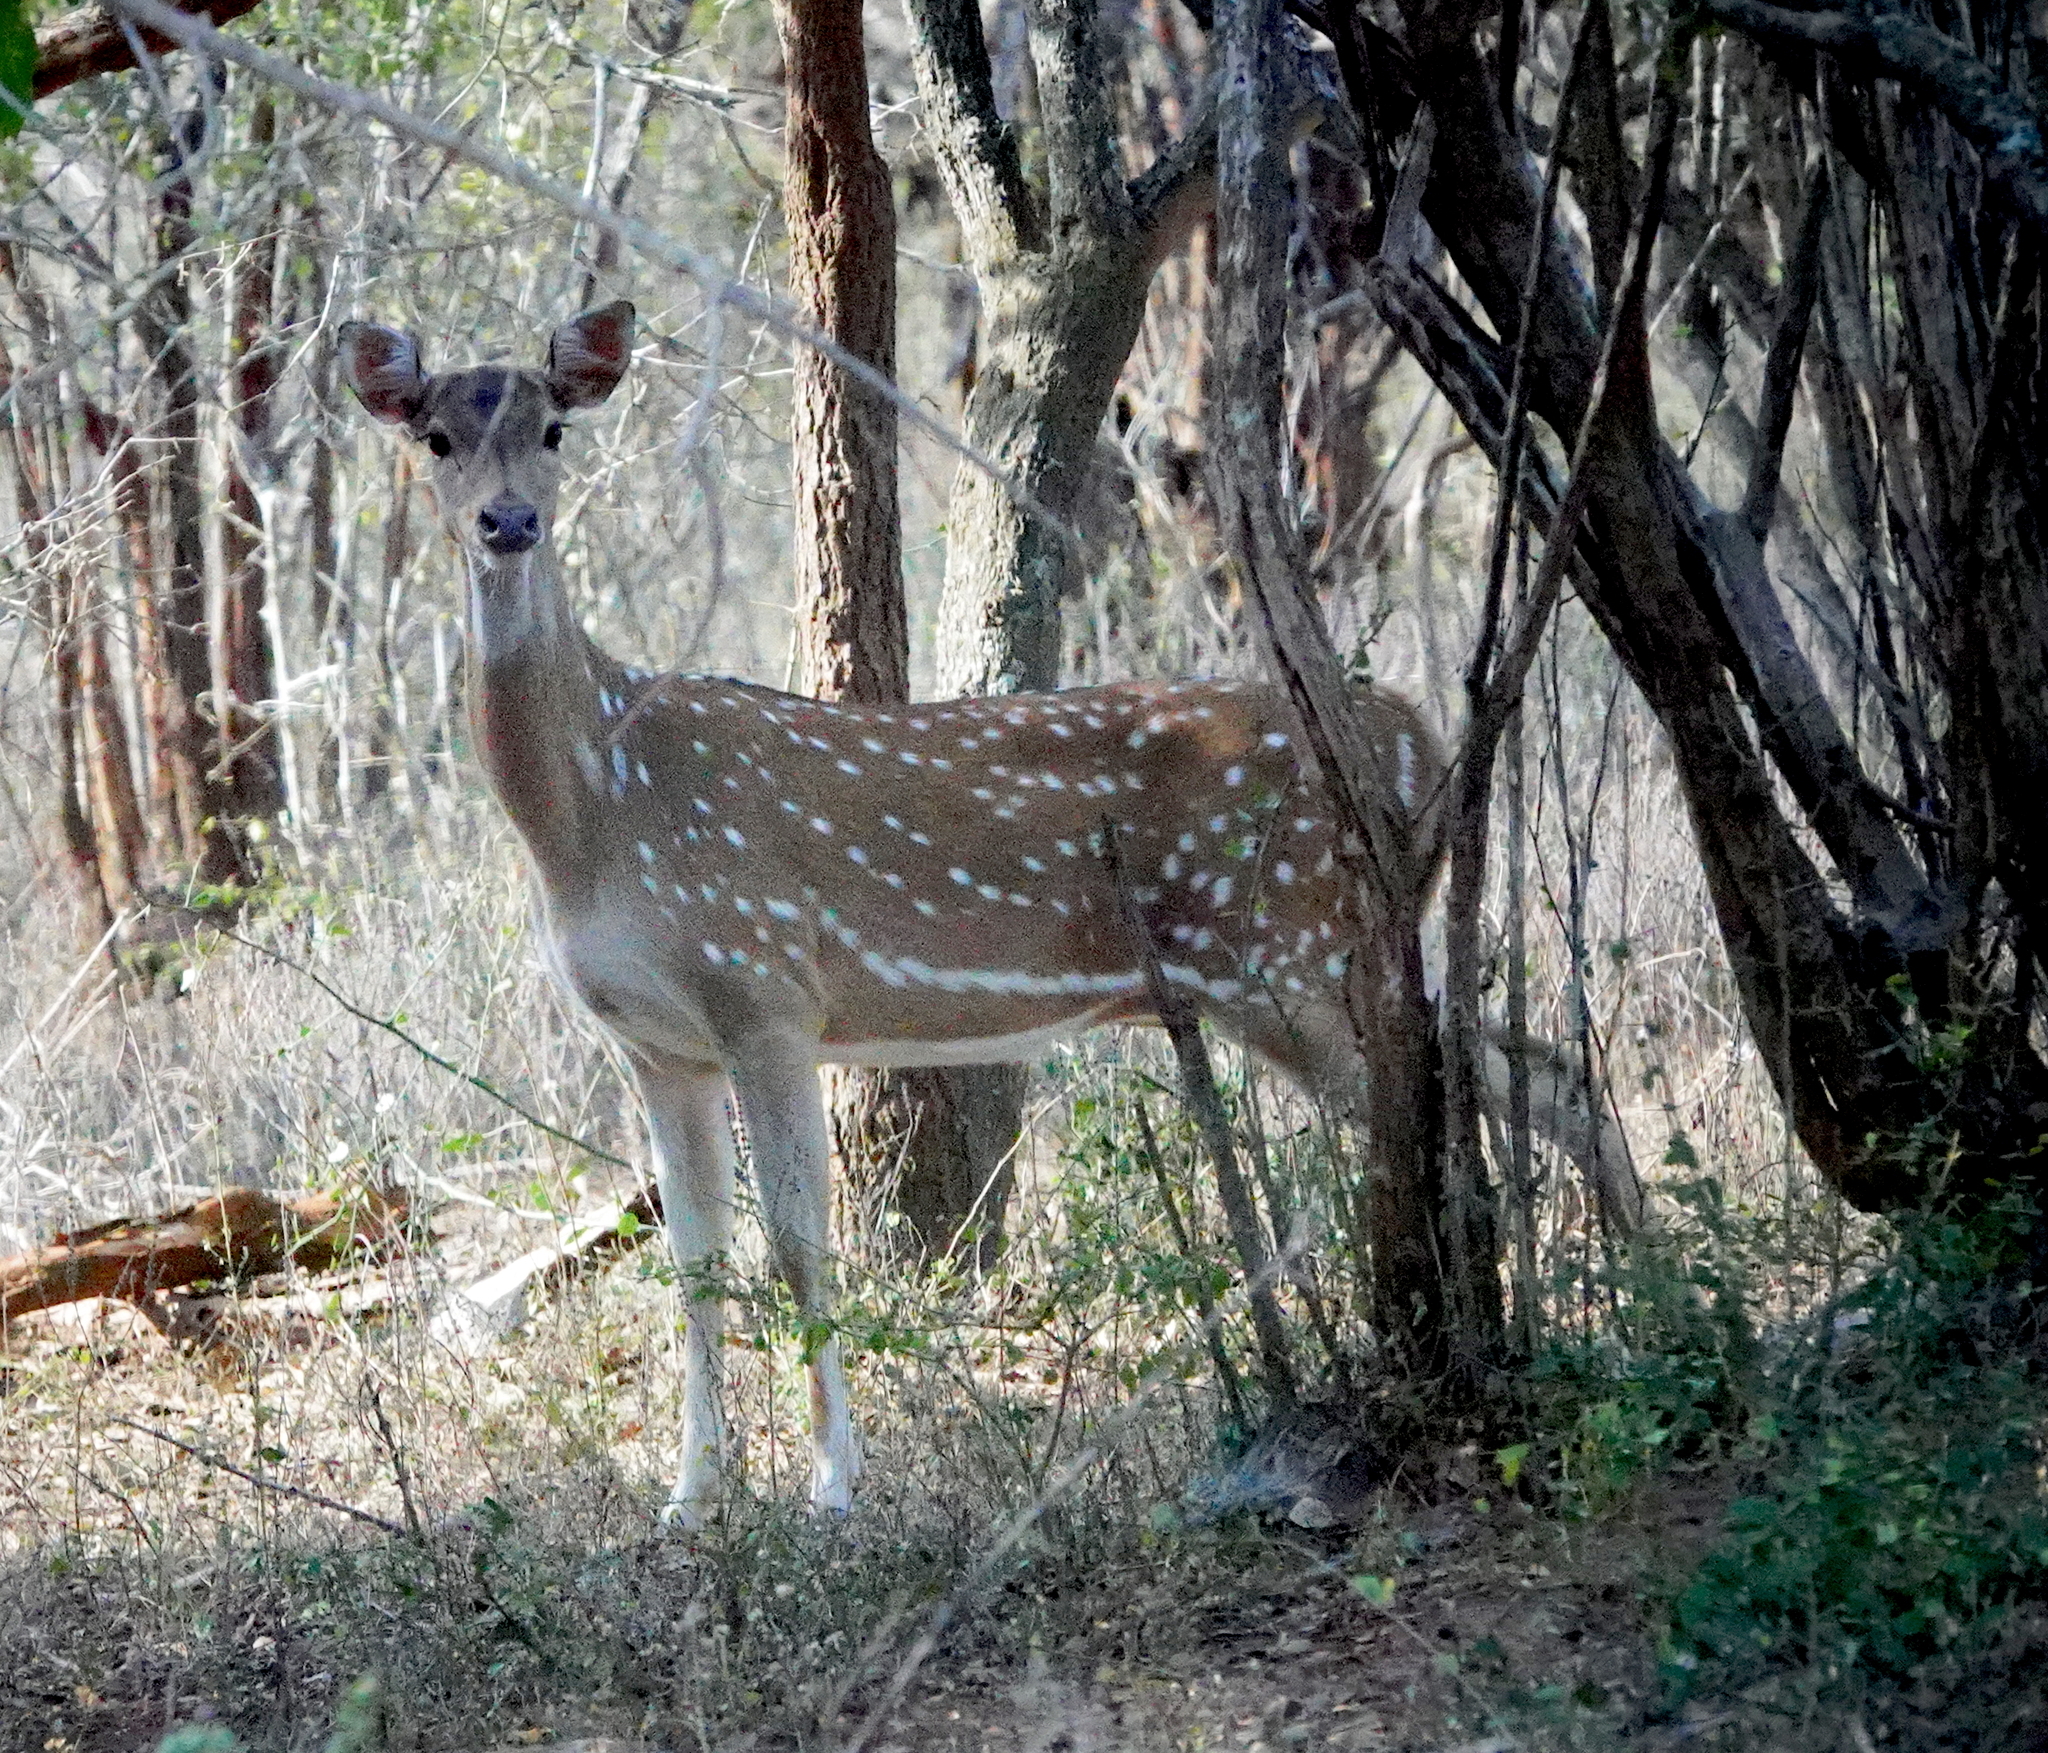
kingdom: Animalia
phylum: Chordata
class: Mammalia
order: Artiodactyla
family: Cervidae
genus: Axis
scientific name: Axis axis
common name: Chital
